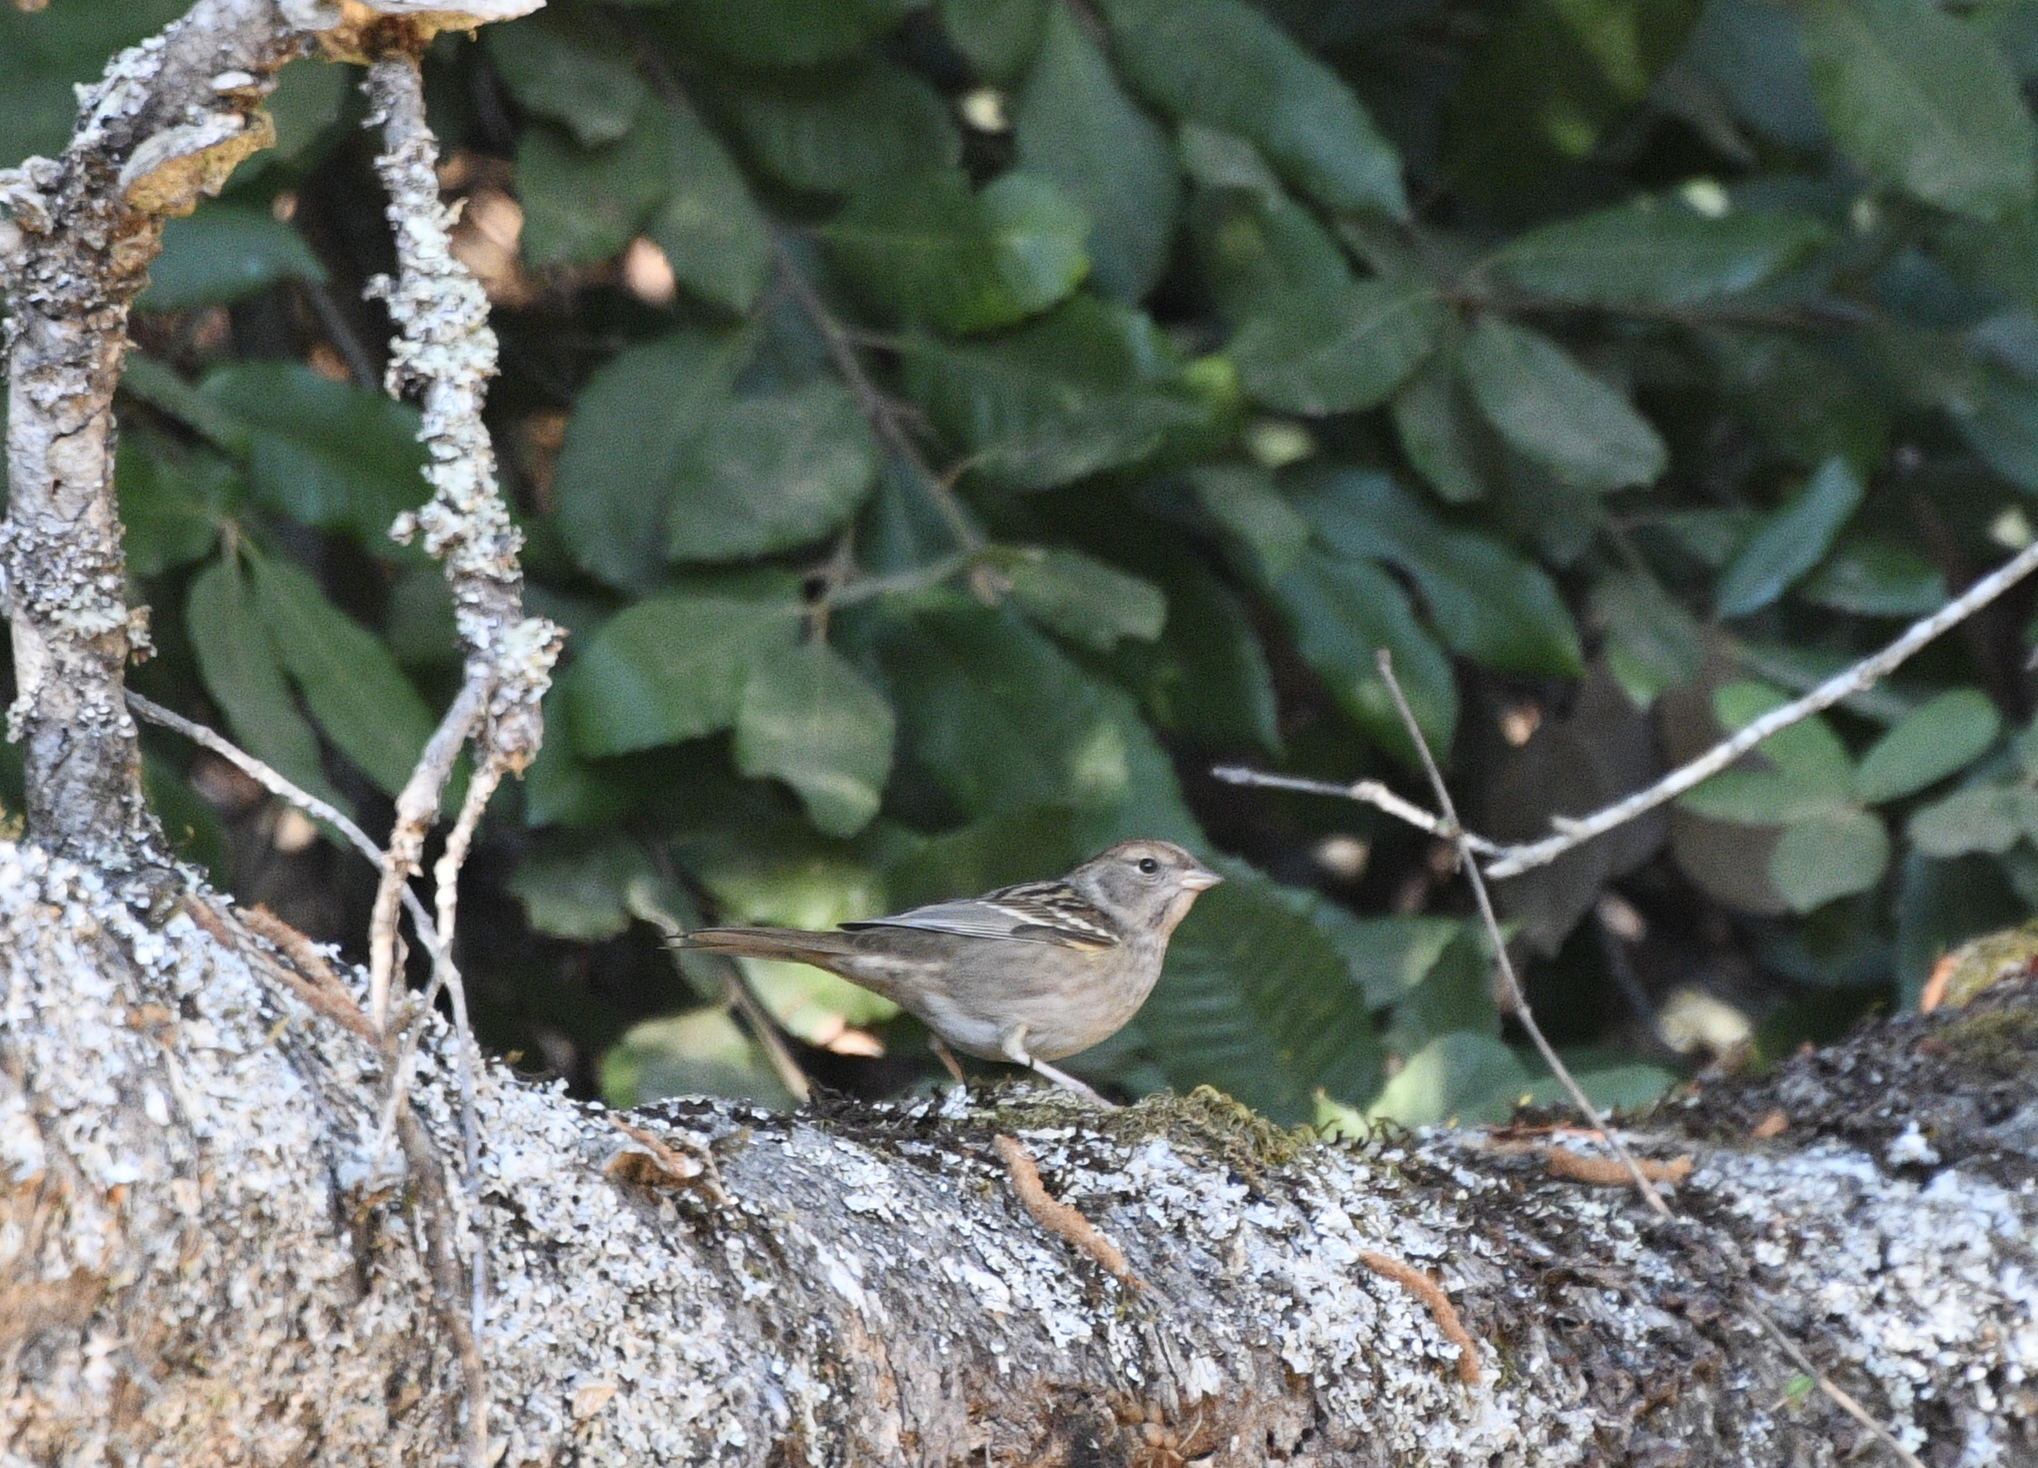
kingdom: Animalia
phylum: Chordata
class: Aves
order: Passeriformes
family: Passerellidae
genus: Zonotrichia
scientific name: Zonotrichia atricapilla
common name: Golden-crowned sparrow
